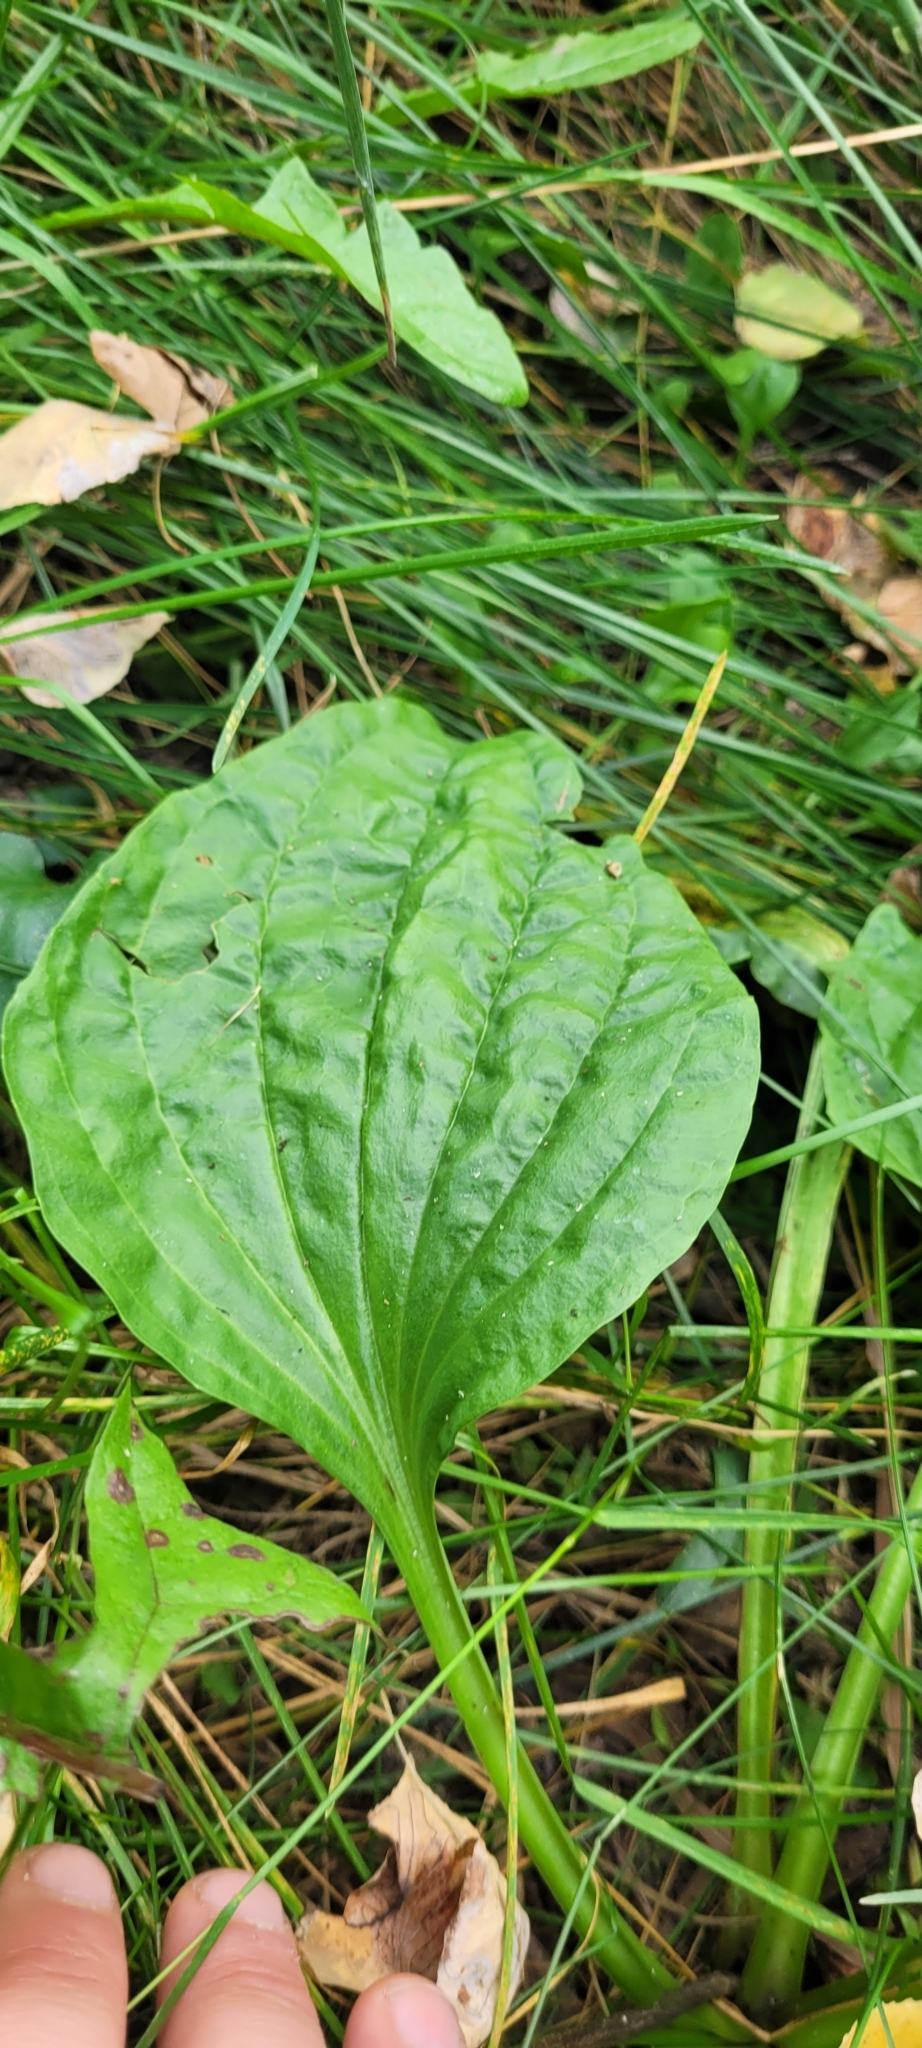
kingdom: Plantae
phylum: Tracheophyta
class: Magnoliopsida
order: Lamiales
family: Plantaginaceae
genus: Plantago
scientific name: Plantago major
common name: Common plantain
